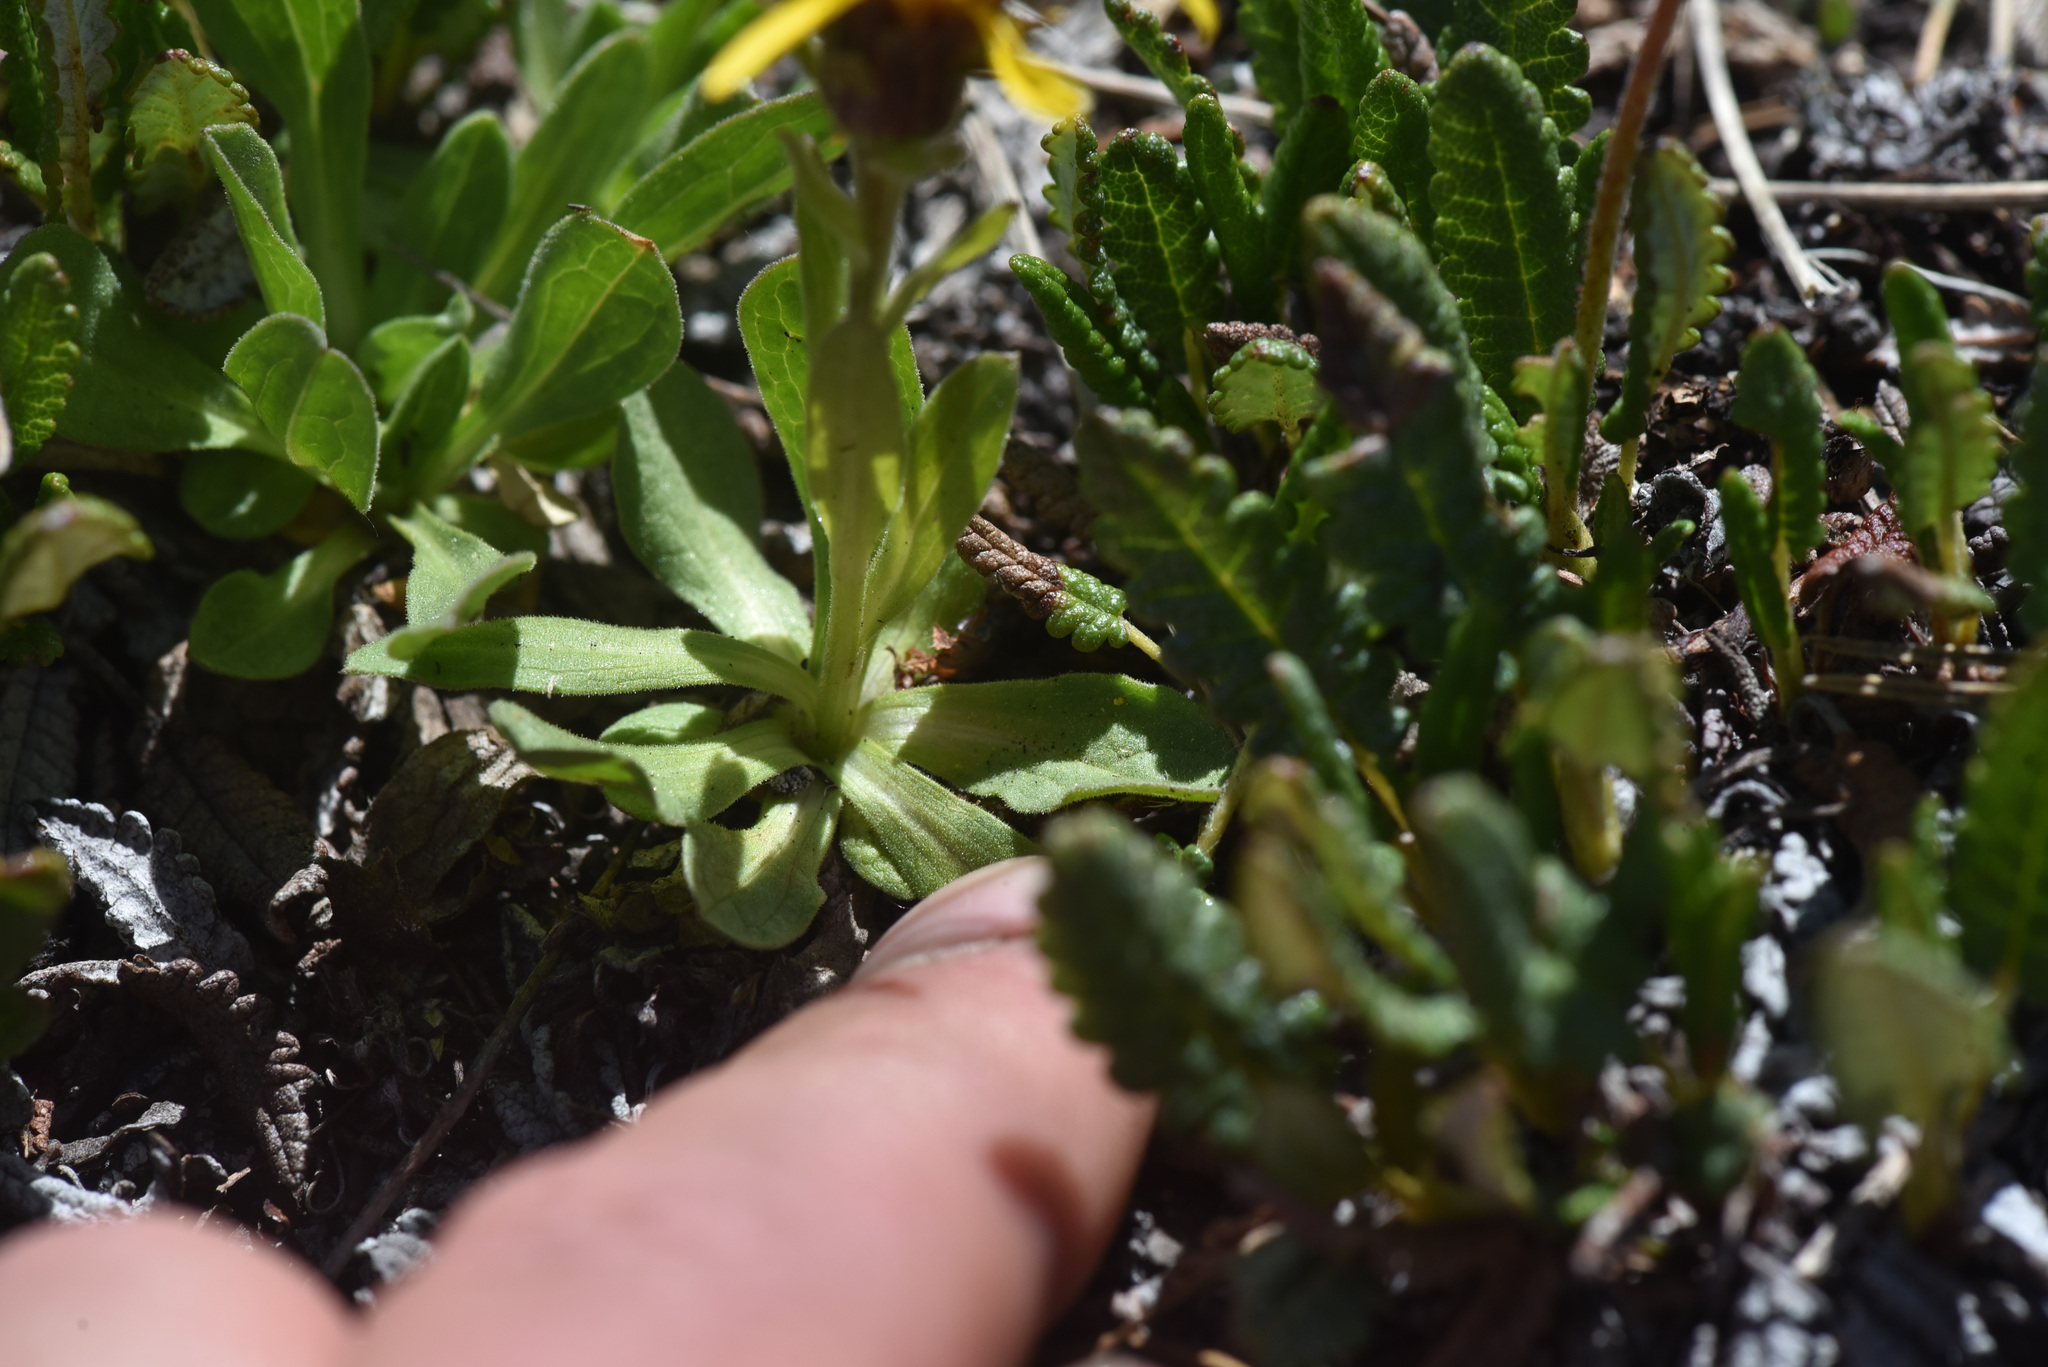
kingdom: Plantae
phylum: Tracheophyta
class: Magnoliopsida
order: Asterales
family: Asteraceae
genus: Tonestus
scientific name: Tonestus lyallii
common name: Lyall's goldenweed
